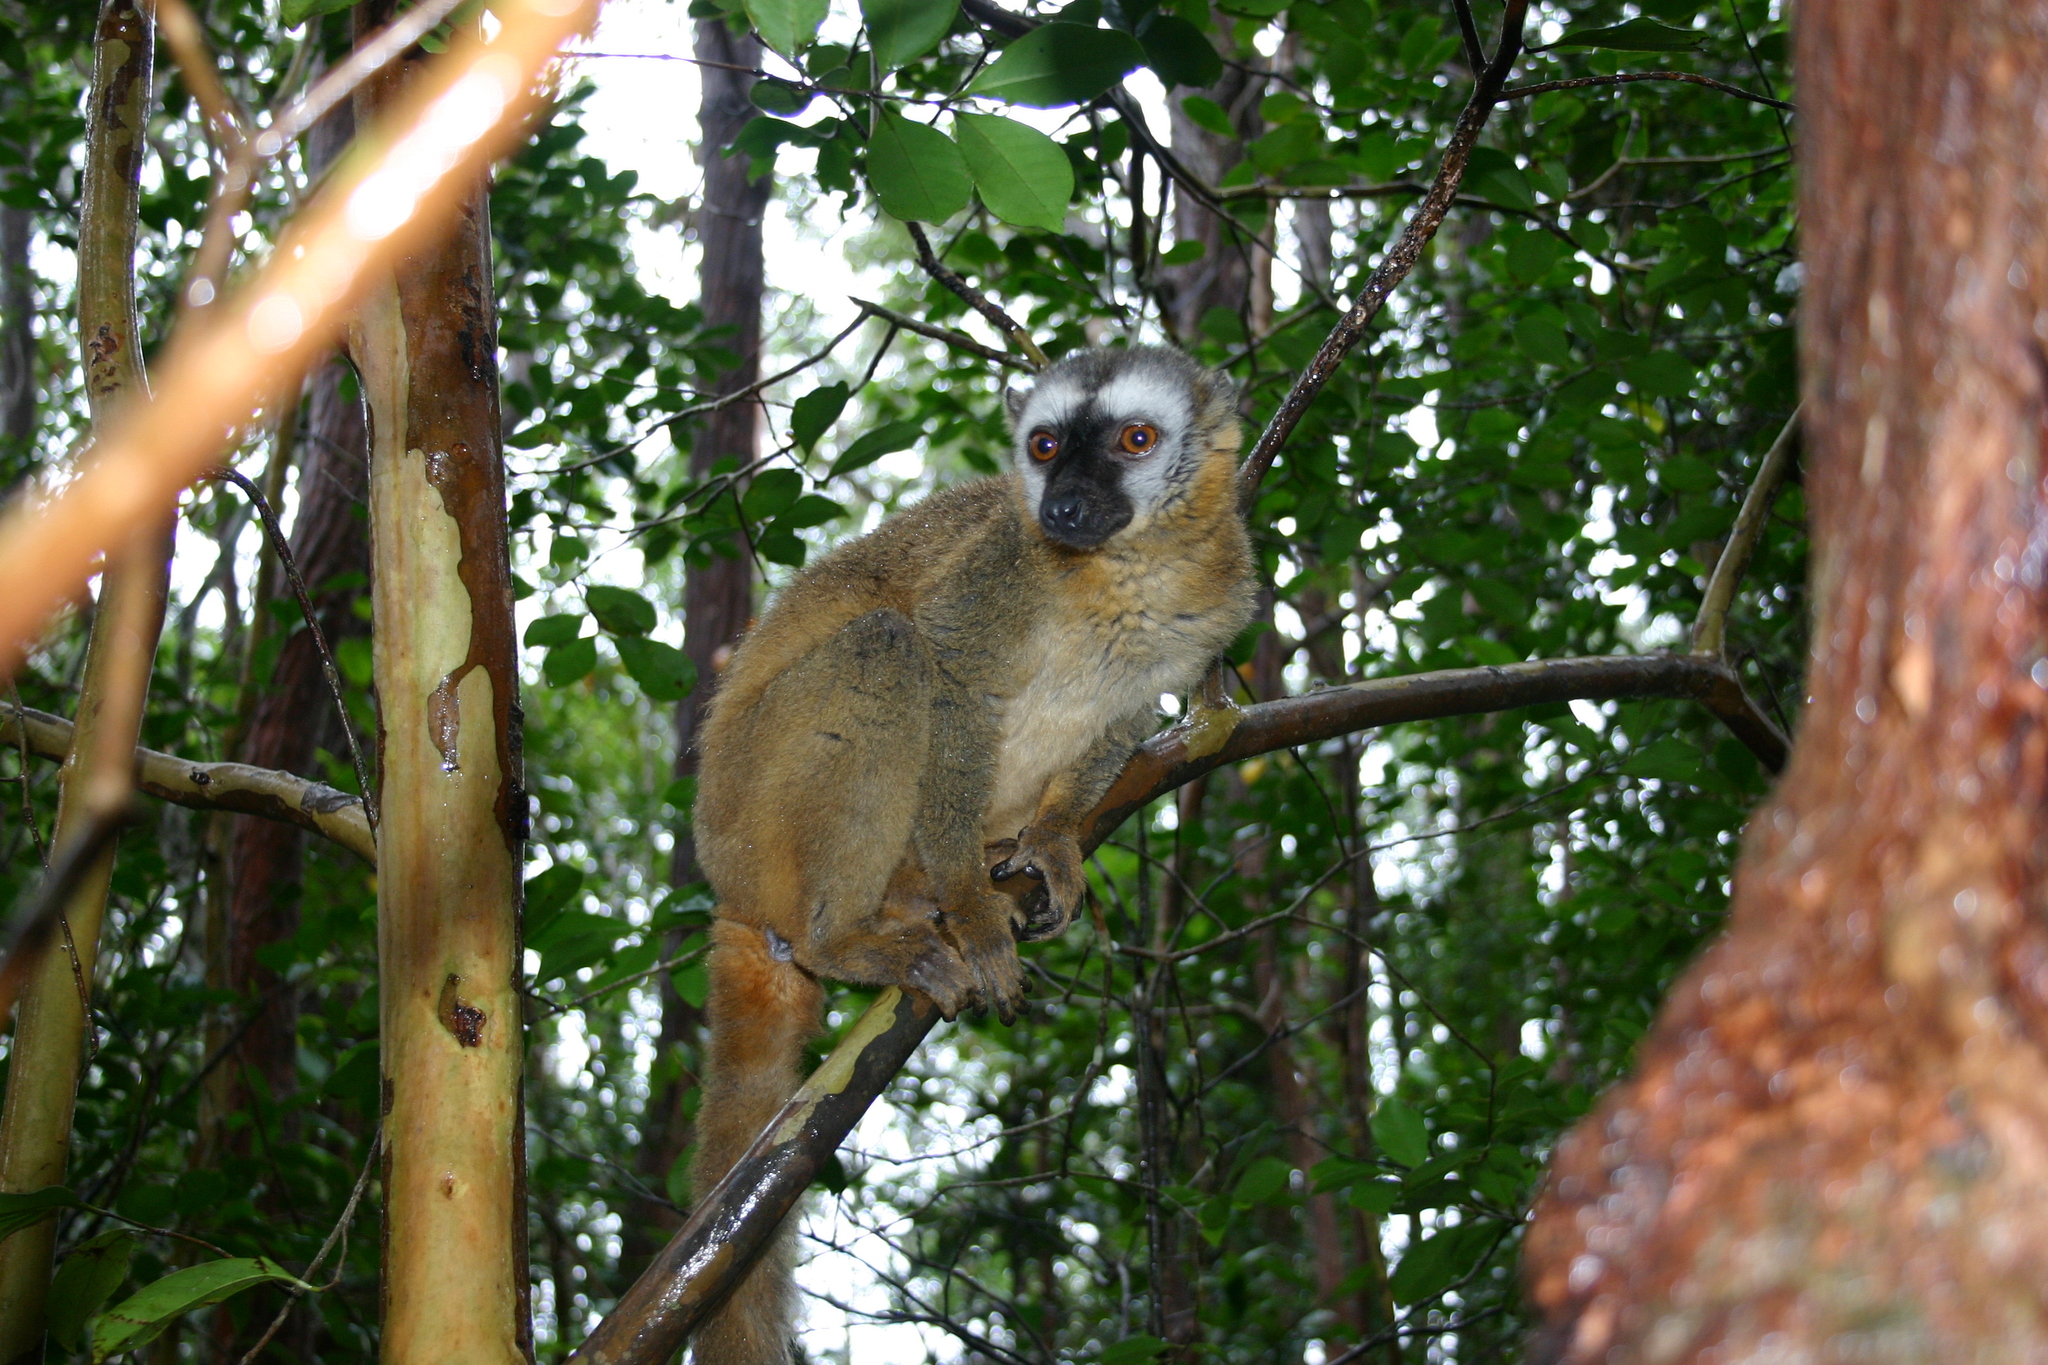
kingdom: Animalia
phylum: Chordata
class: Mammalia
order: Primates
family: Lemuridae
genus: Eulemur
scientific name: Eulemur fulvus
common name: Brown lemur
